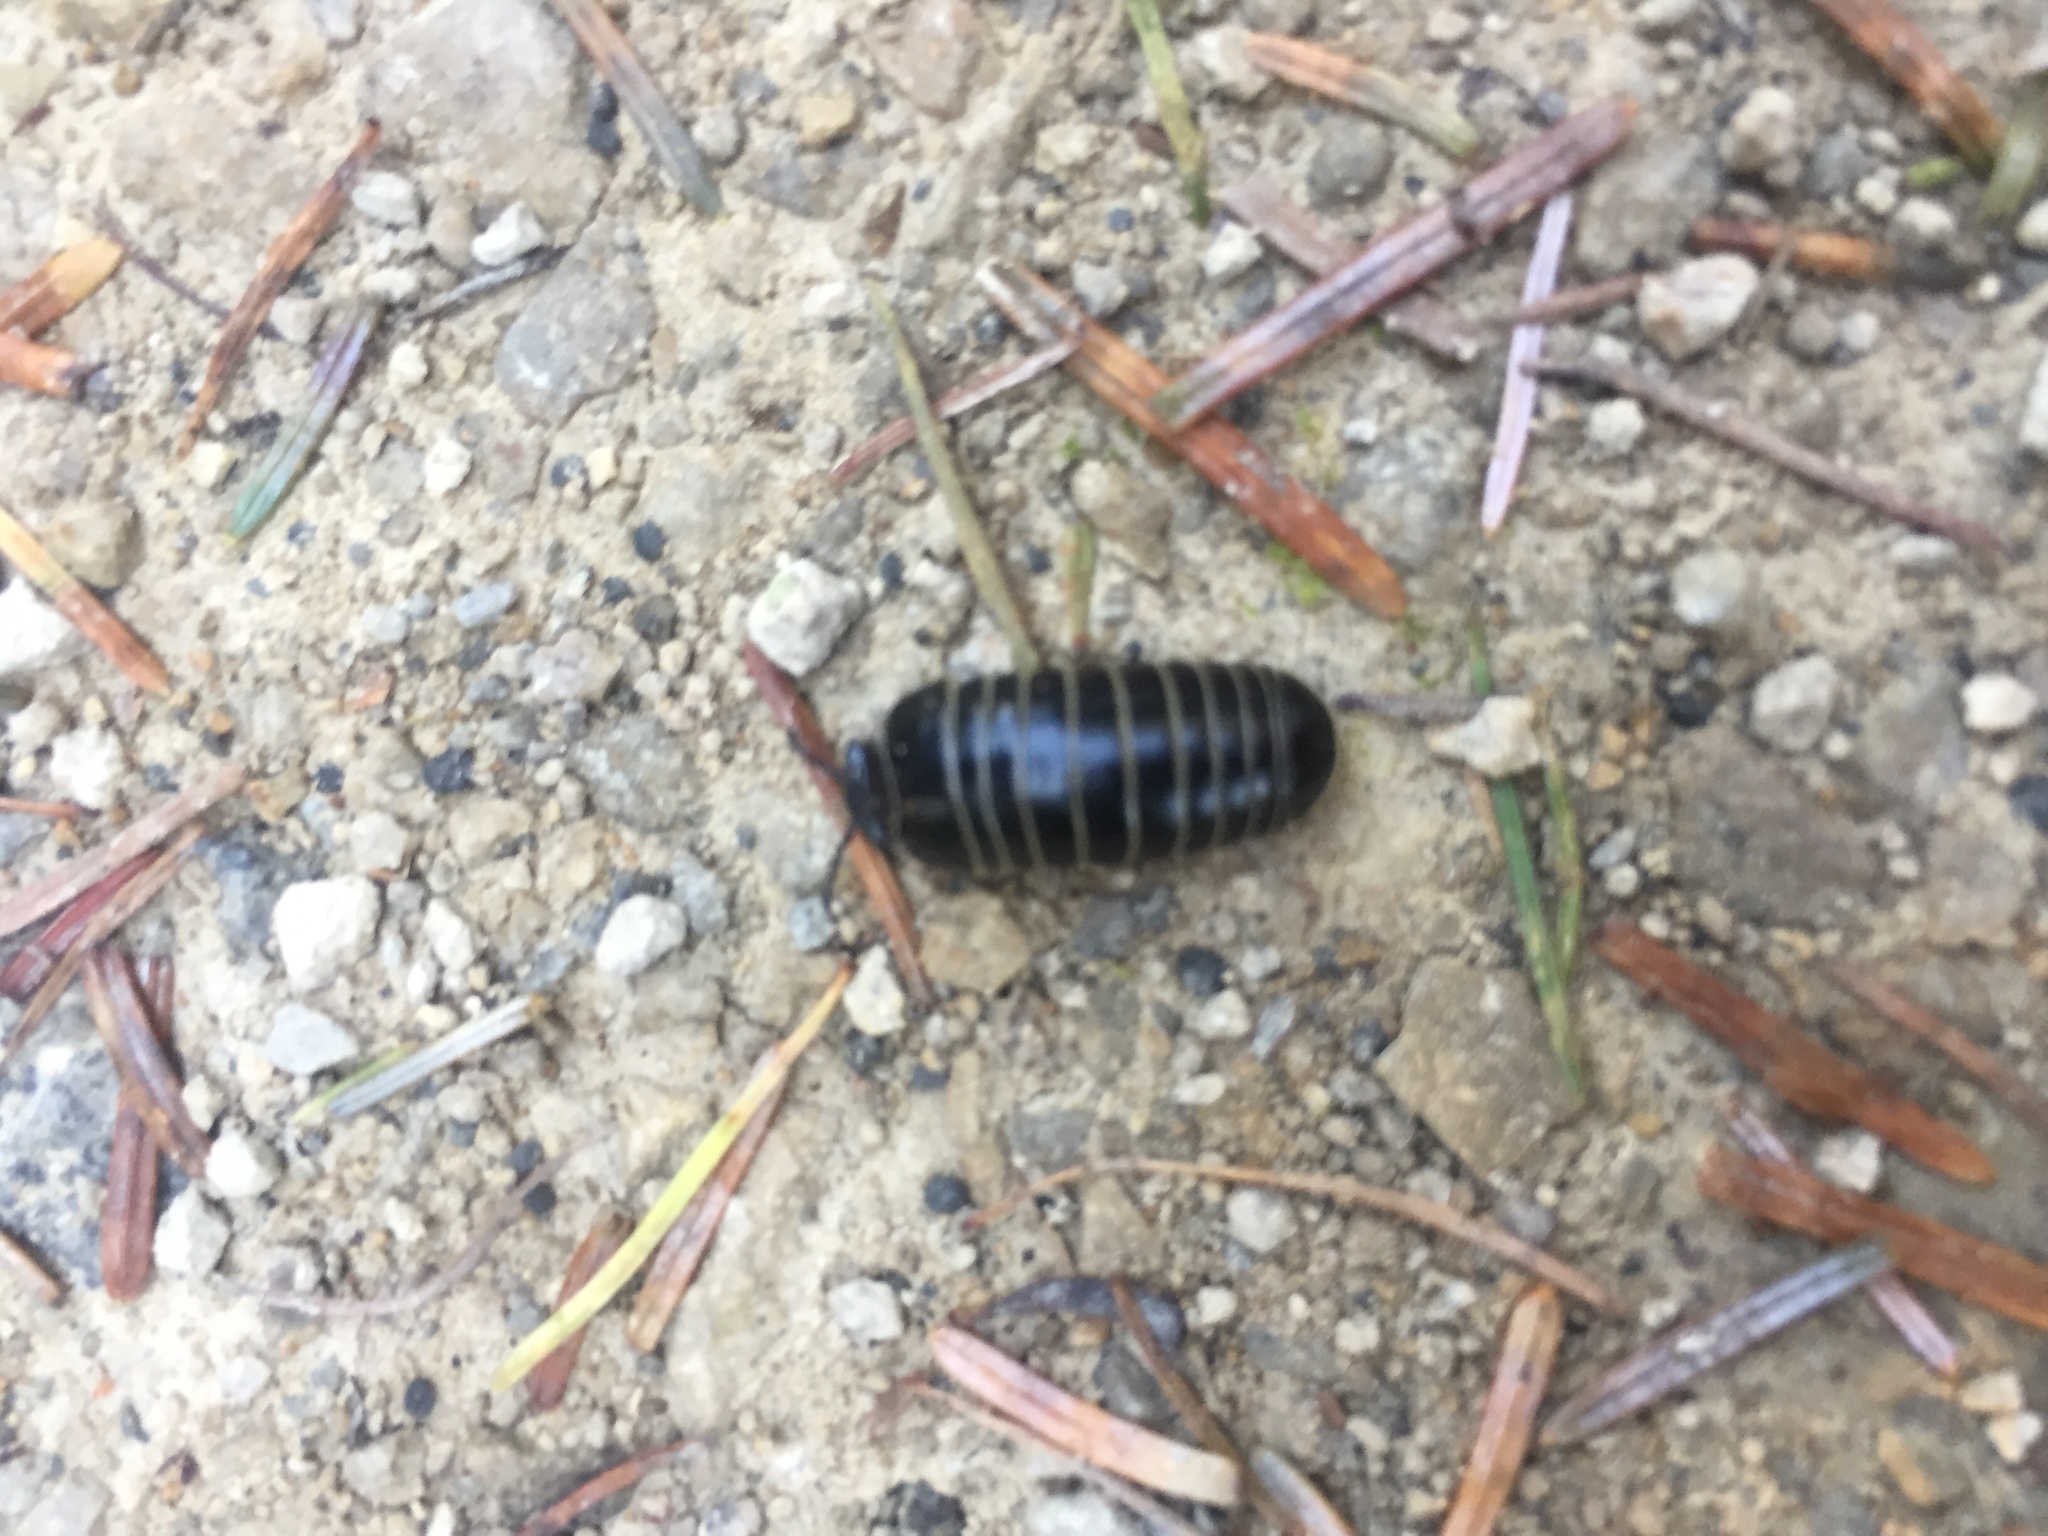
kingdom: Animalia
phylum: Arthropoda
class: Diplopoda
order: Glomerida
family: Glomeridae
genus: Glomeris
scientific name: Glomeris marginata
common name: Bordered pill millipede
